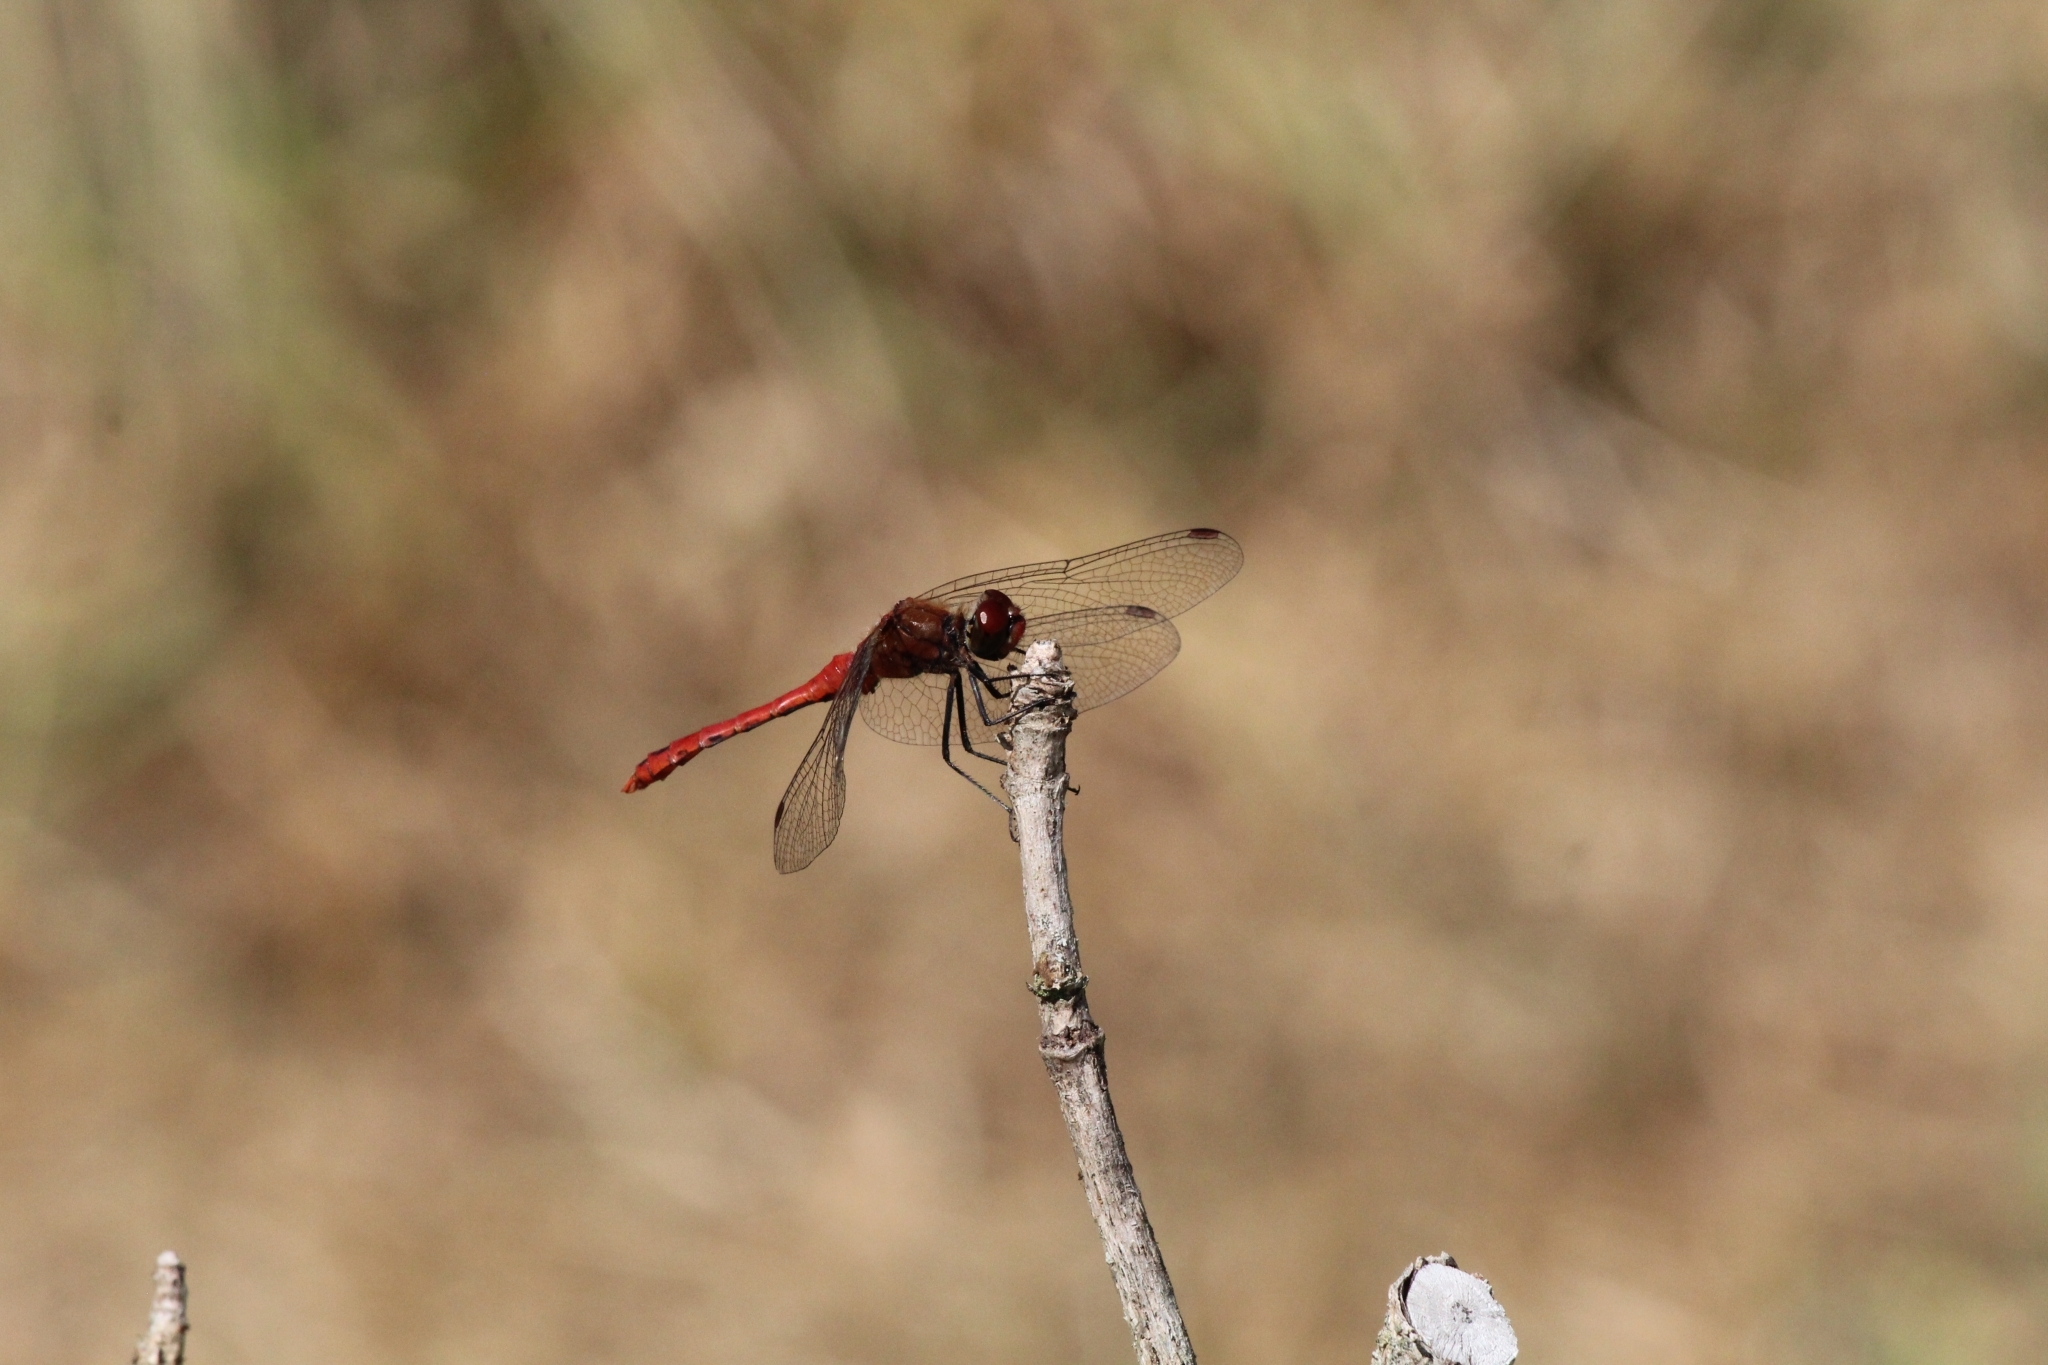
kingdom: Animalia
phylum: Arthropoda
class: Insecta
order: Odonata
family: Libellulidae
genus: Sympetrum
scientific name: Sympetrum sanguineum
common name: Ruddy darter
